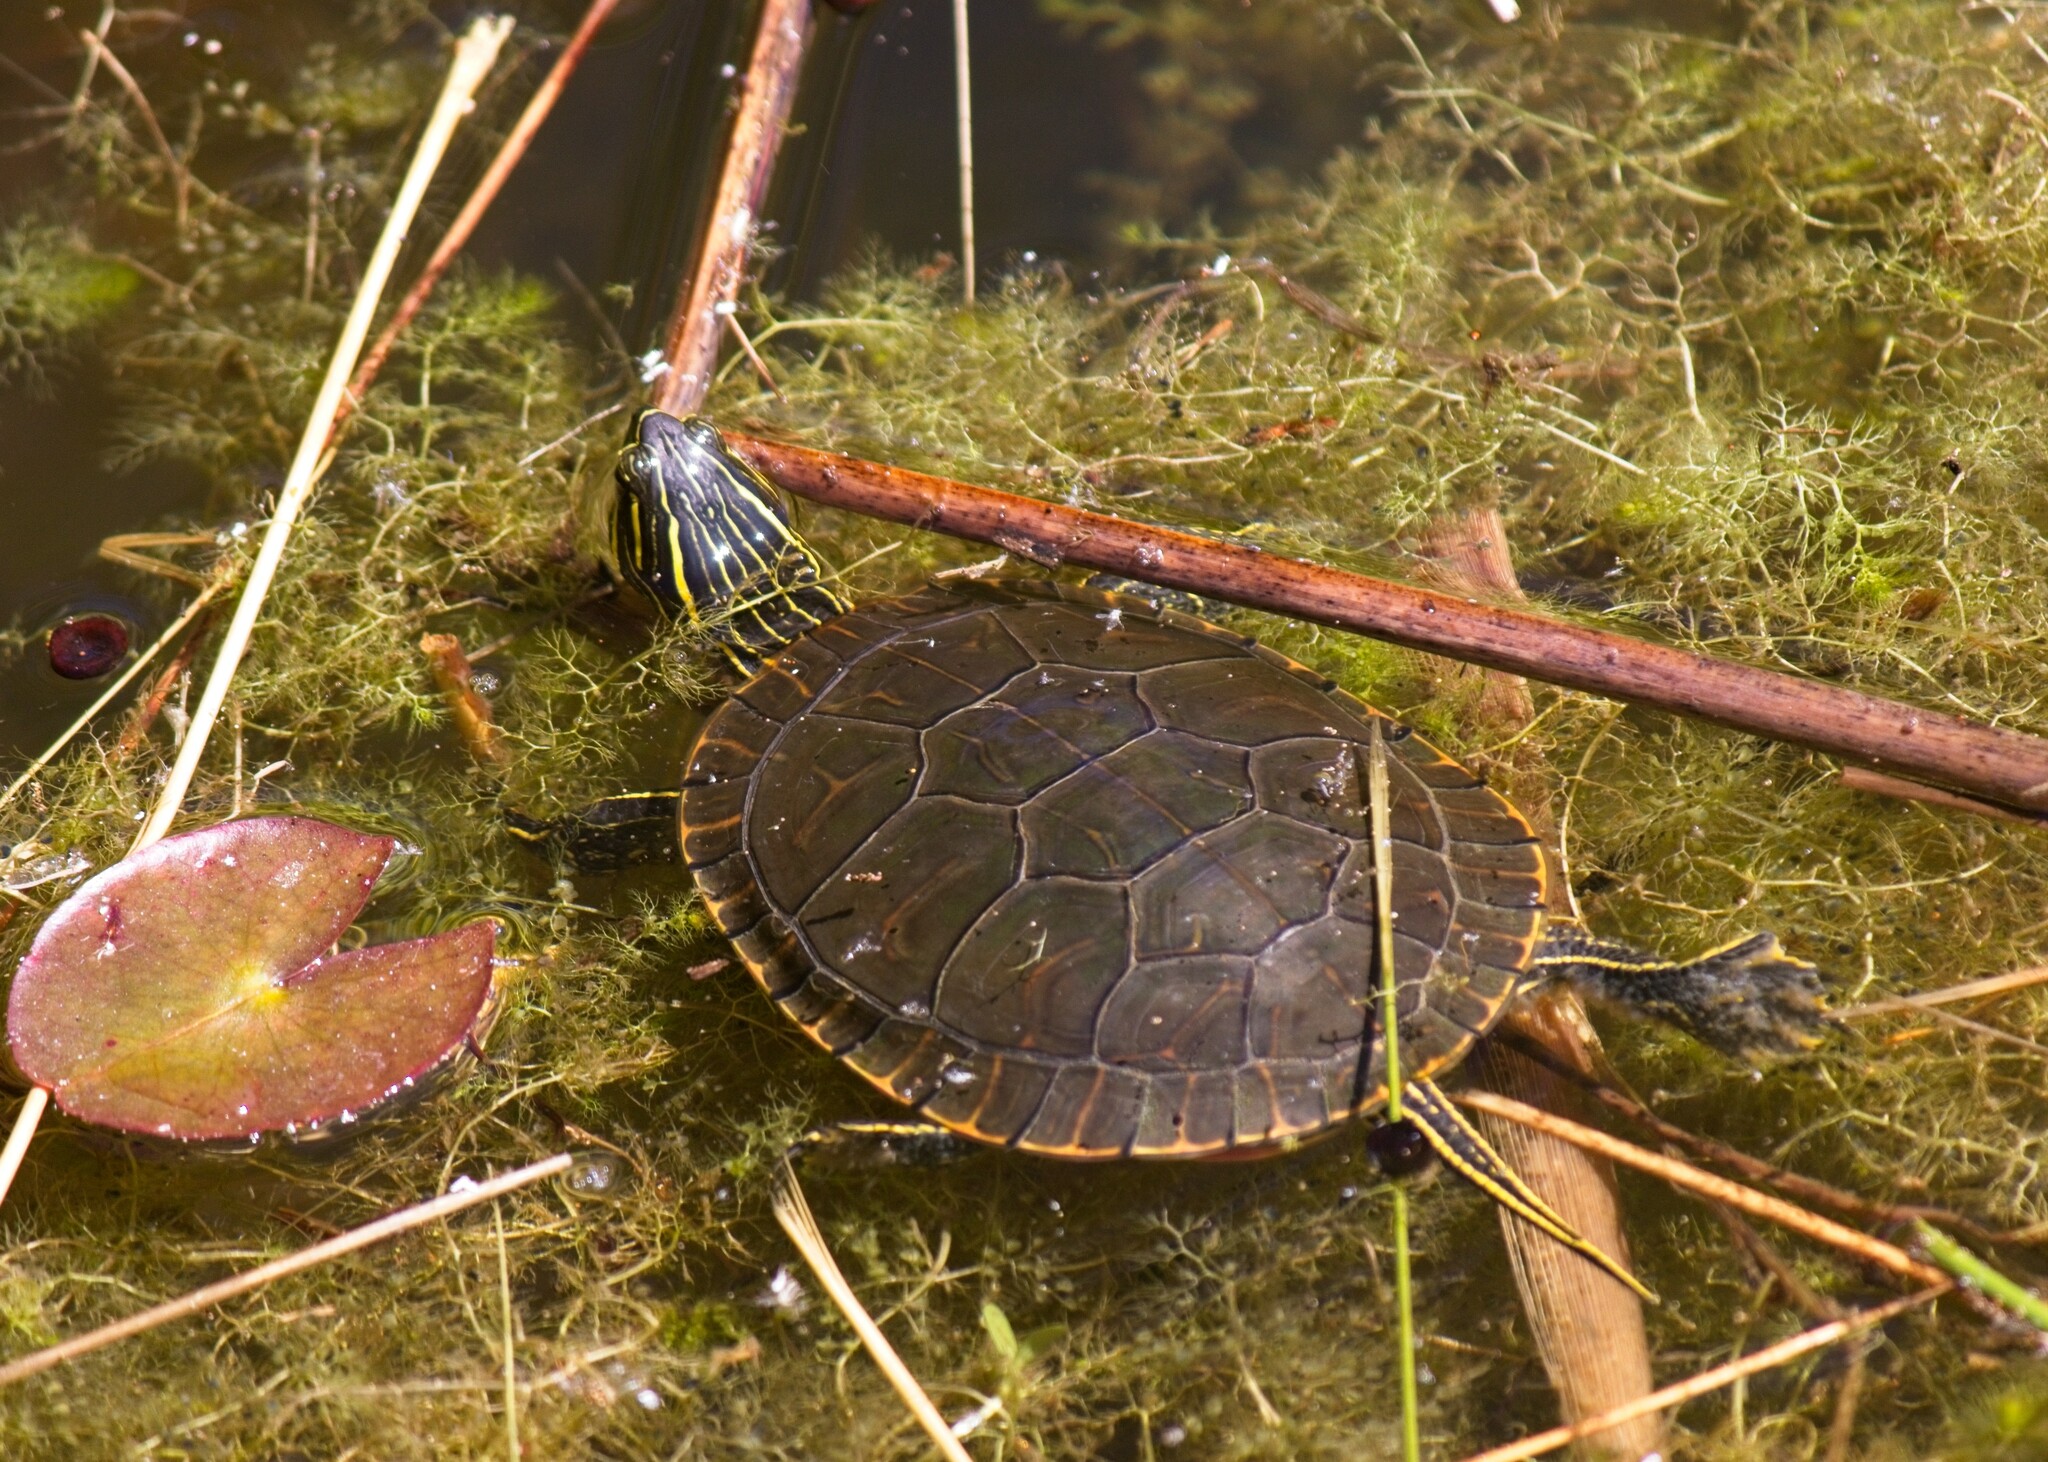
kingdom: Animalia
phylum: Chordata
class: Testudines
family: Emydidae
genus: Chrysemys
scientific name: Chrysemys picta
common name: Painted turtle
